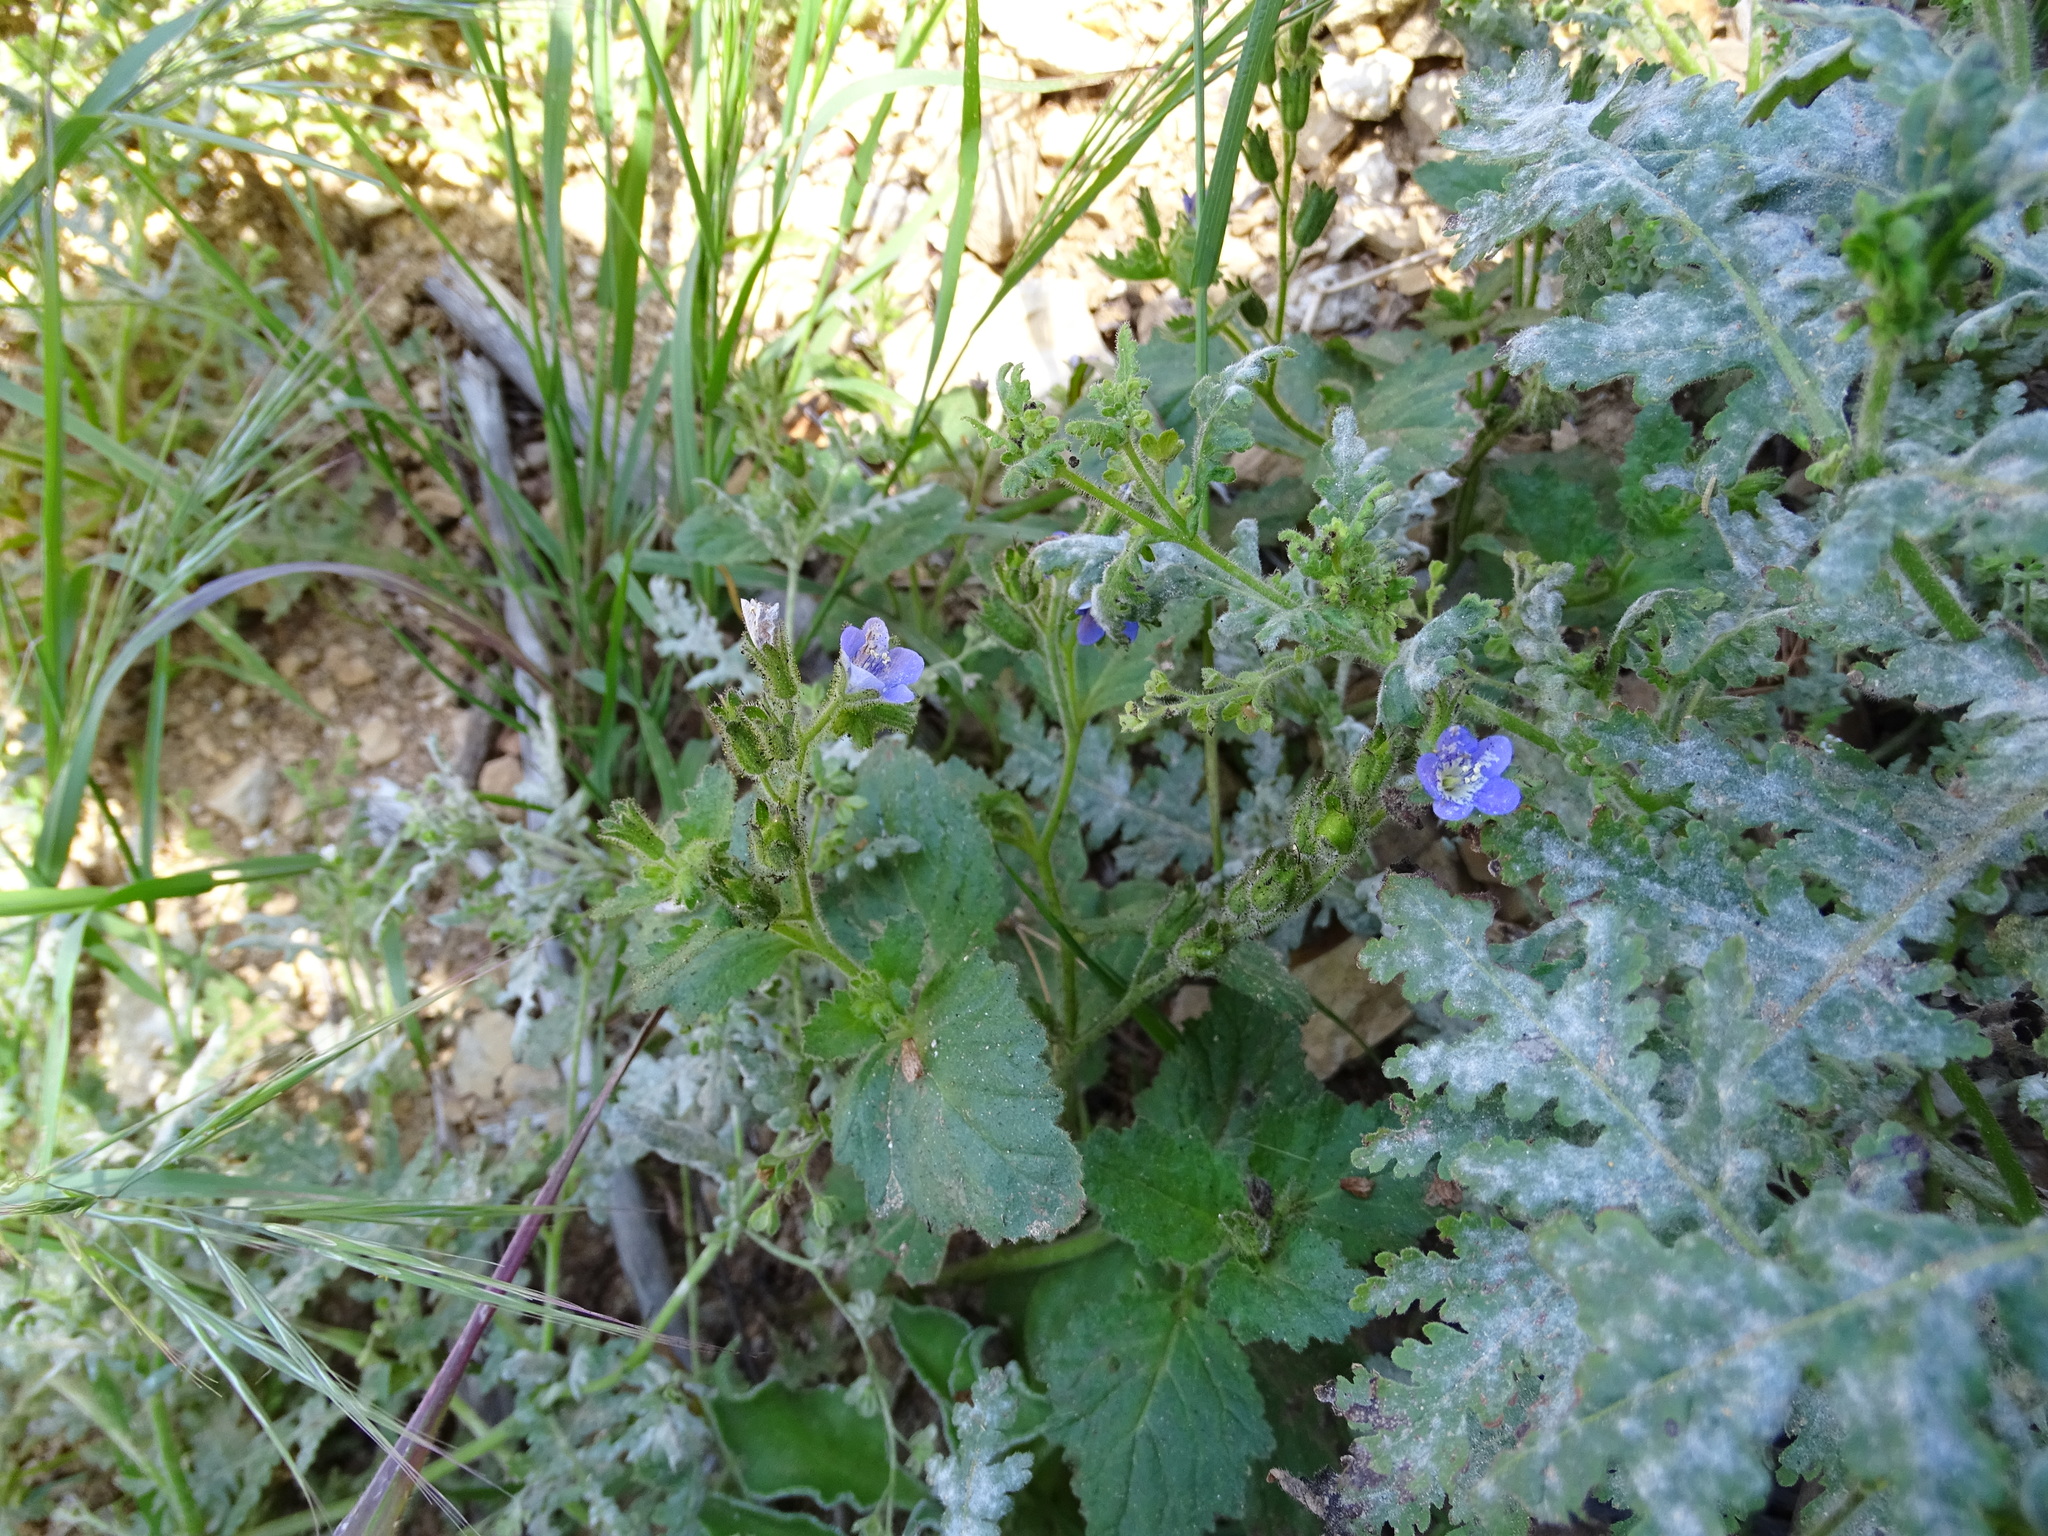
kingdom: Plantae
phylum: Tracheophyta
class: Magnoliopsida
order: Boraginales
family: Hydrophyllaceae
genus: Phacelia
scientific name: Phacelia viscida
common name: Sticky phacelia
